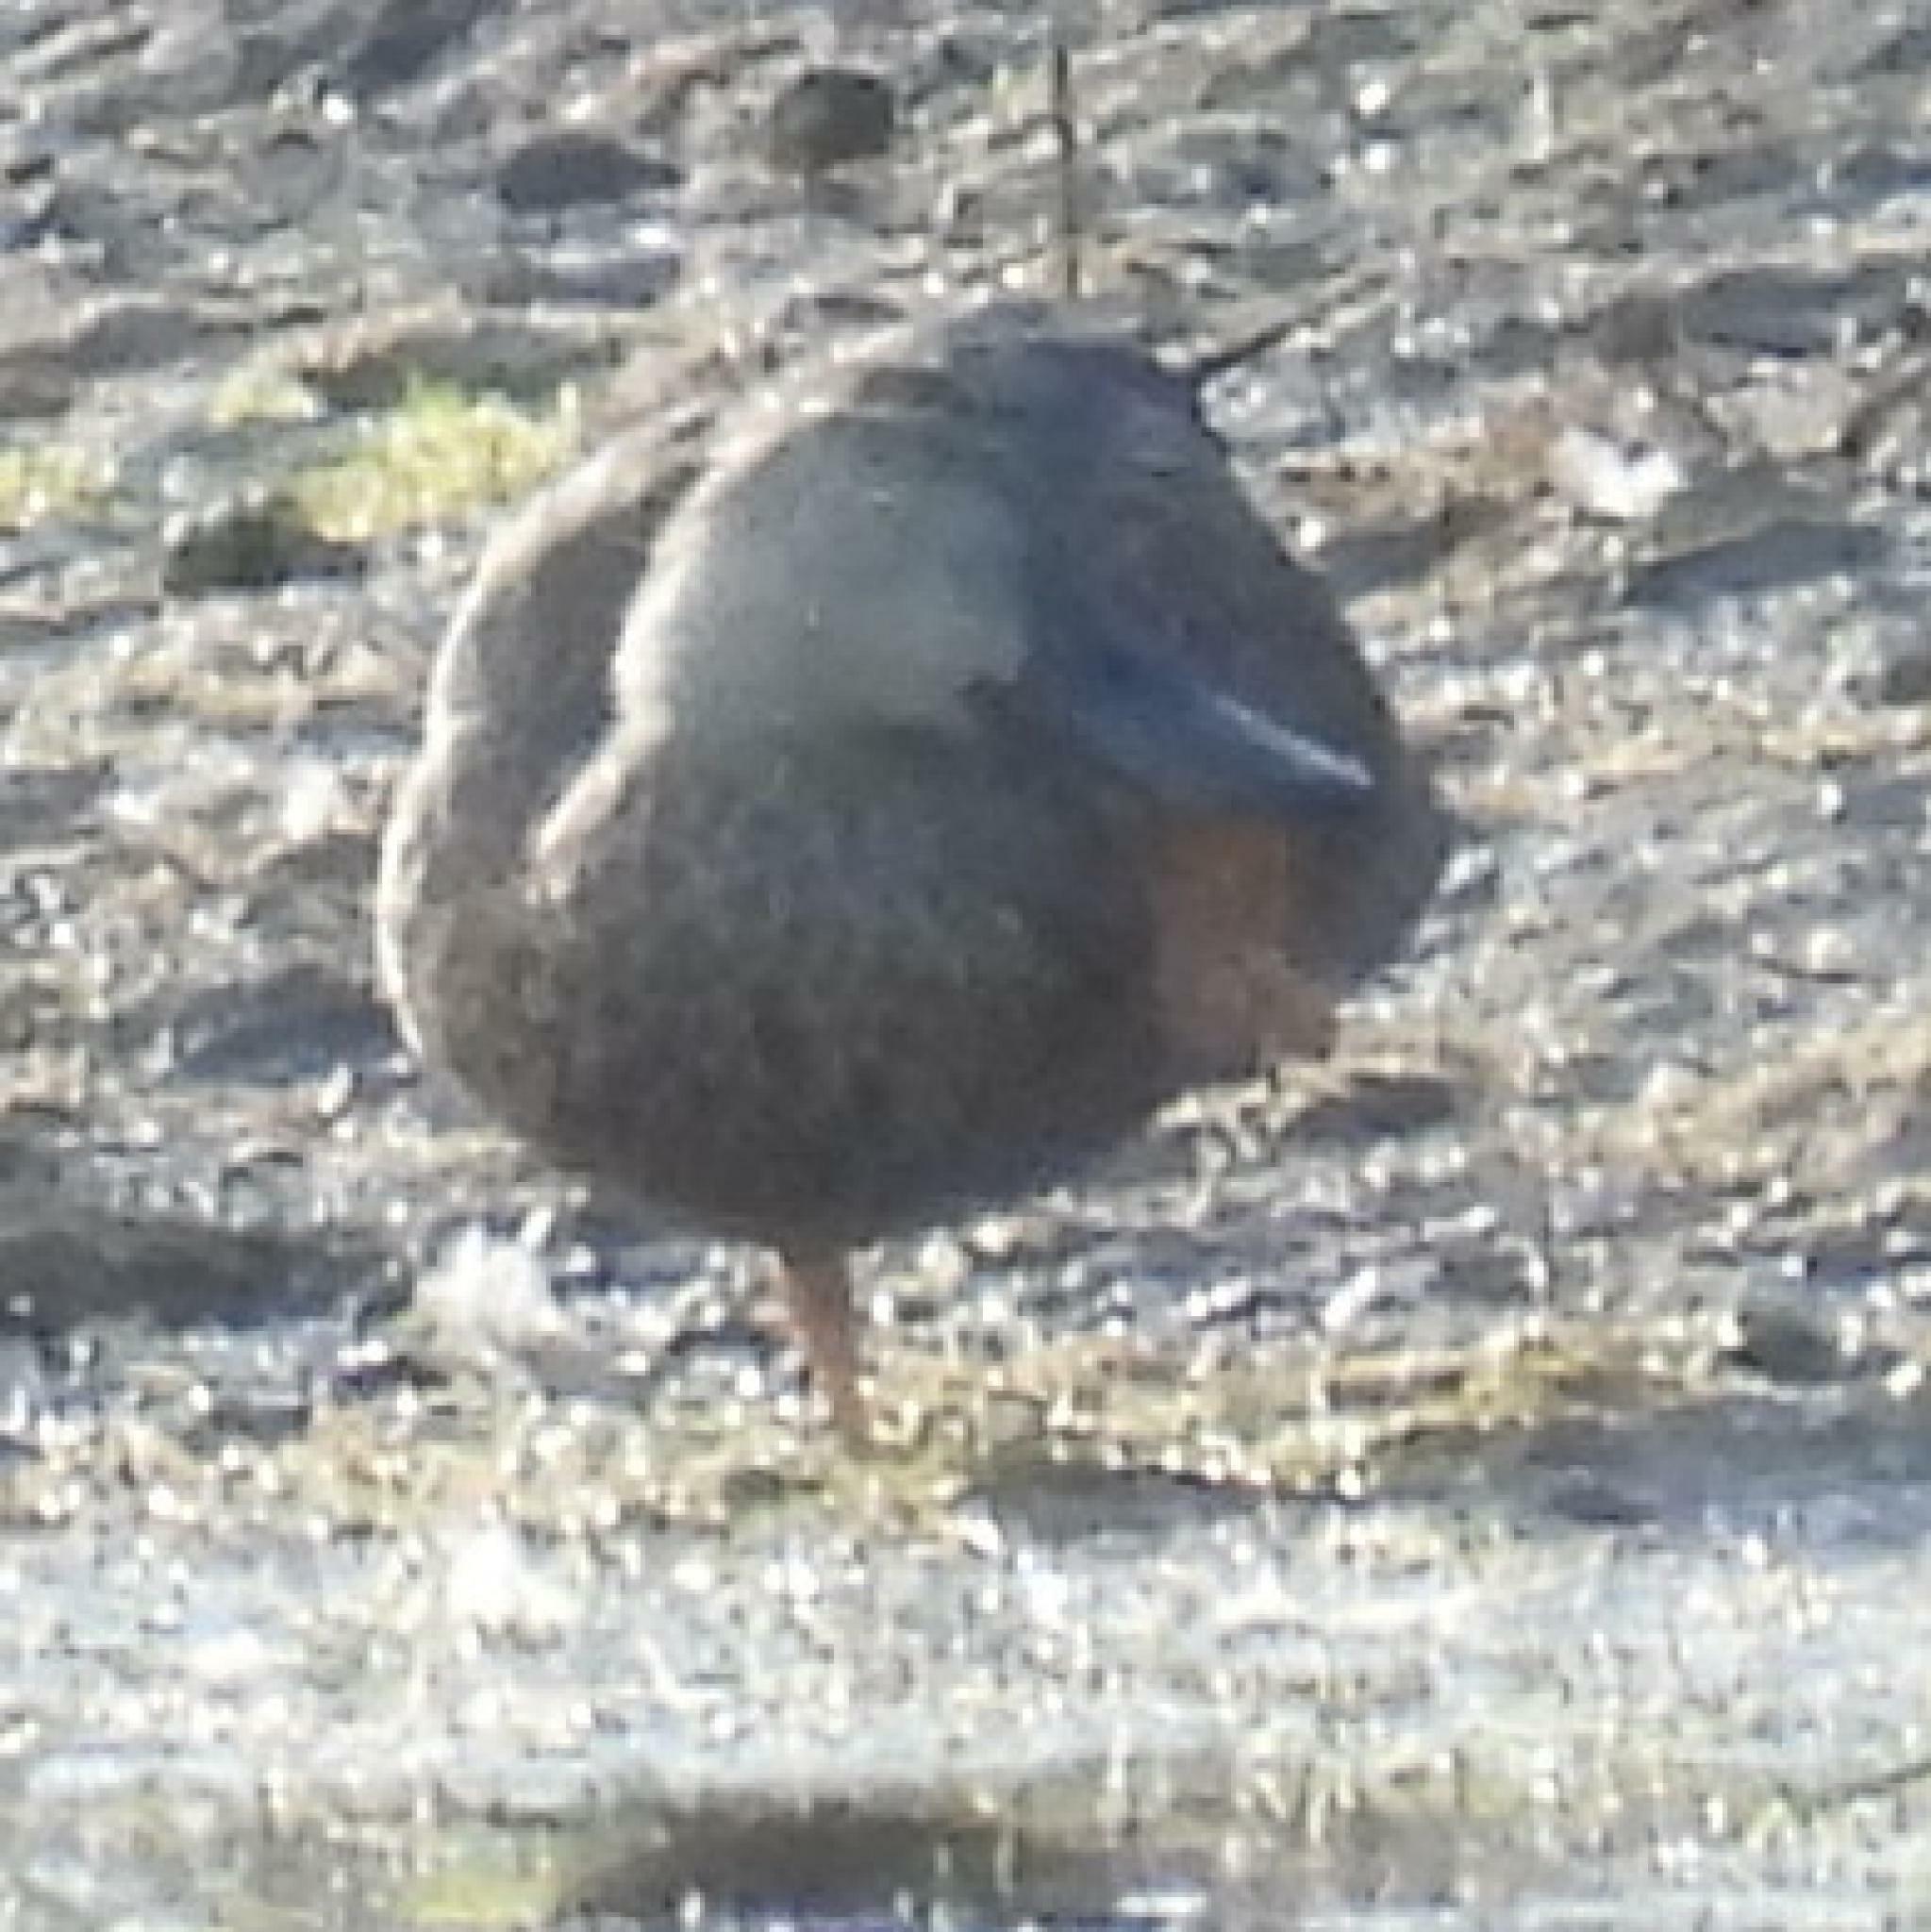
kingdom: Animalia
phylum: Chordata
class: Aves
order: Anseriformes
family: Anatidae
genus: Spatula
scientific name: Spatula smithii
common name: Cape shoveler
